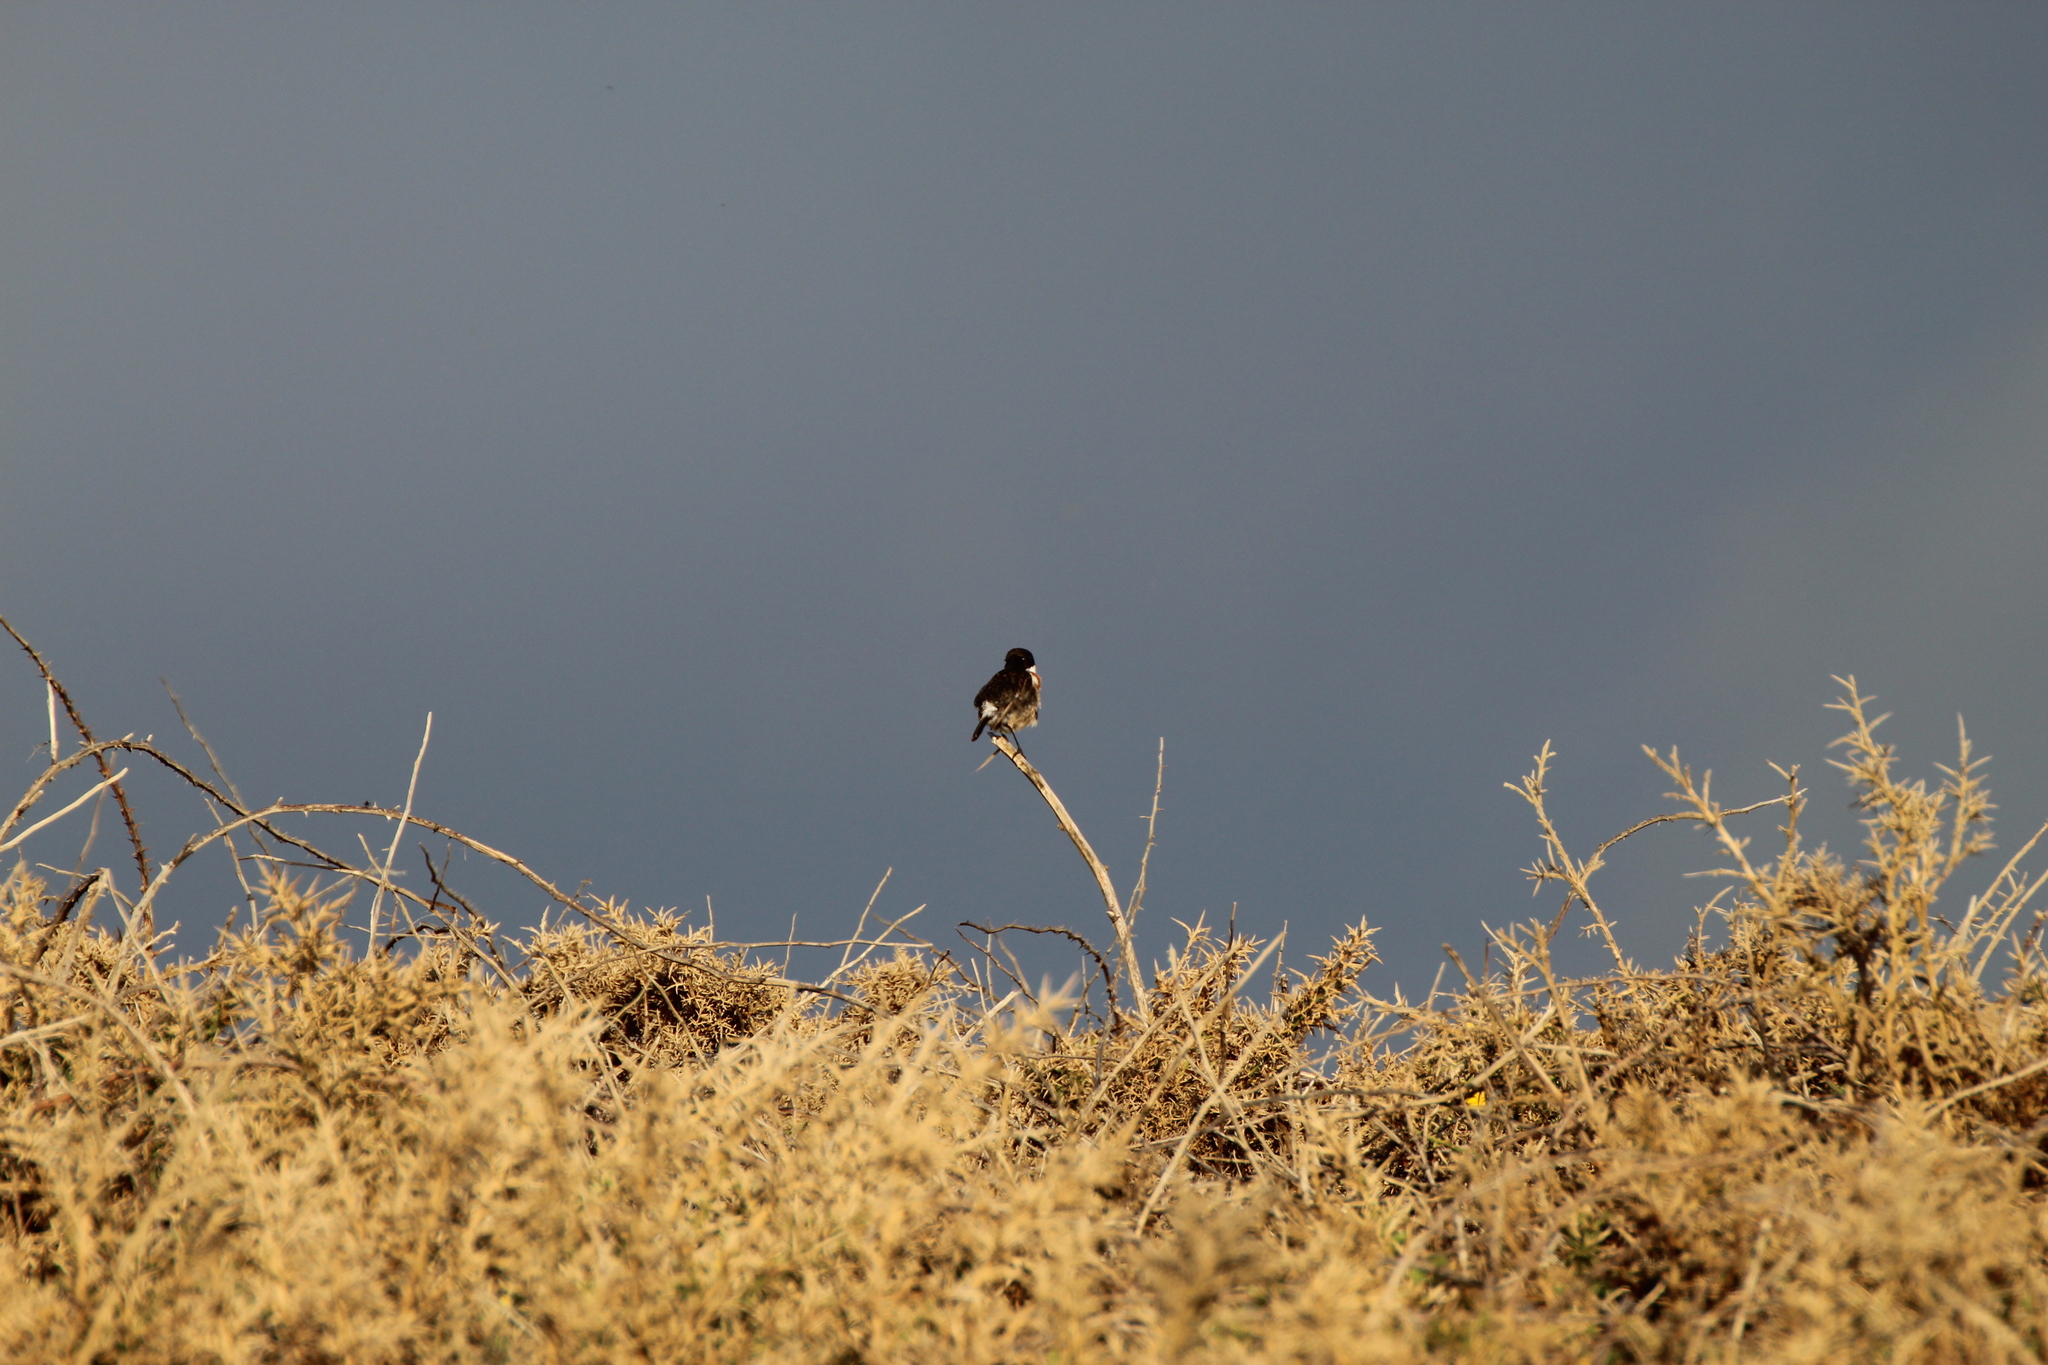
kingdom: Animalia
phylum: Chordata
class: Aves
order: Passeriformes
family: Muscicapidae
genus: Saxicola
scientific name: Saxicola rubicola
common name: European stonechat
